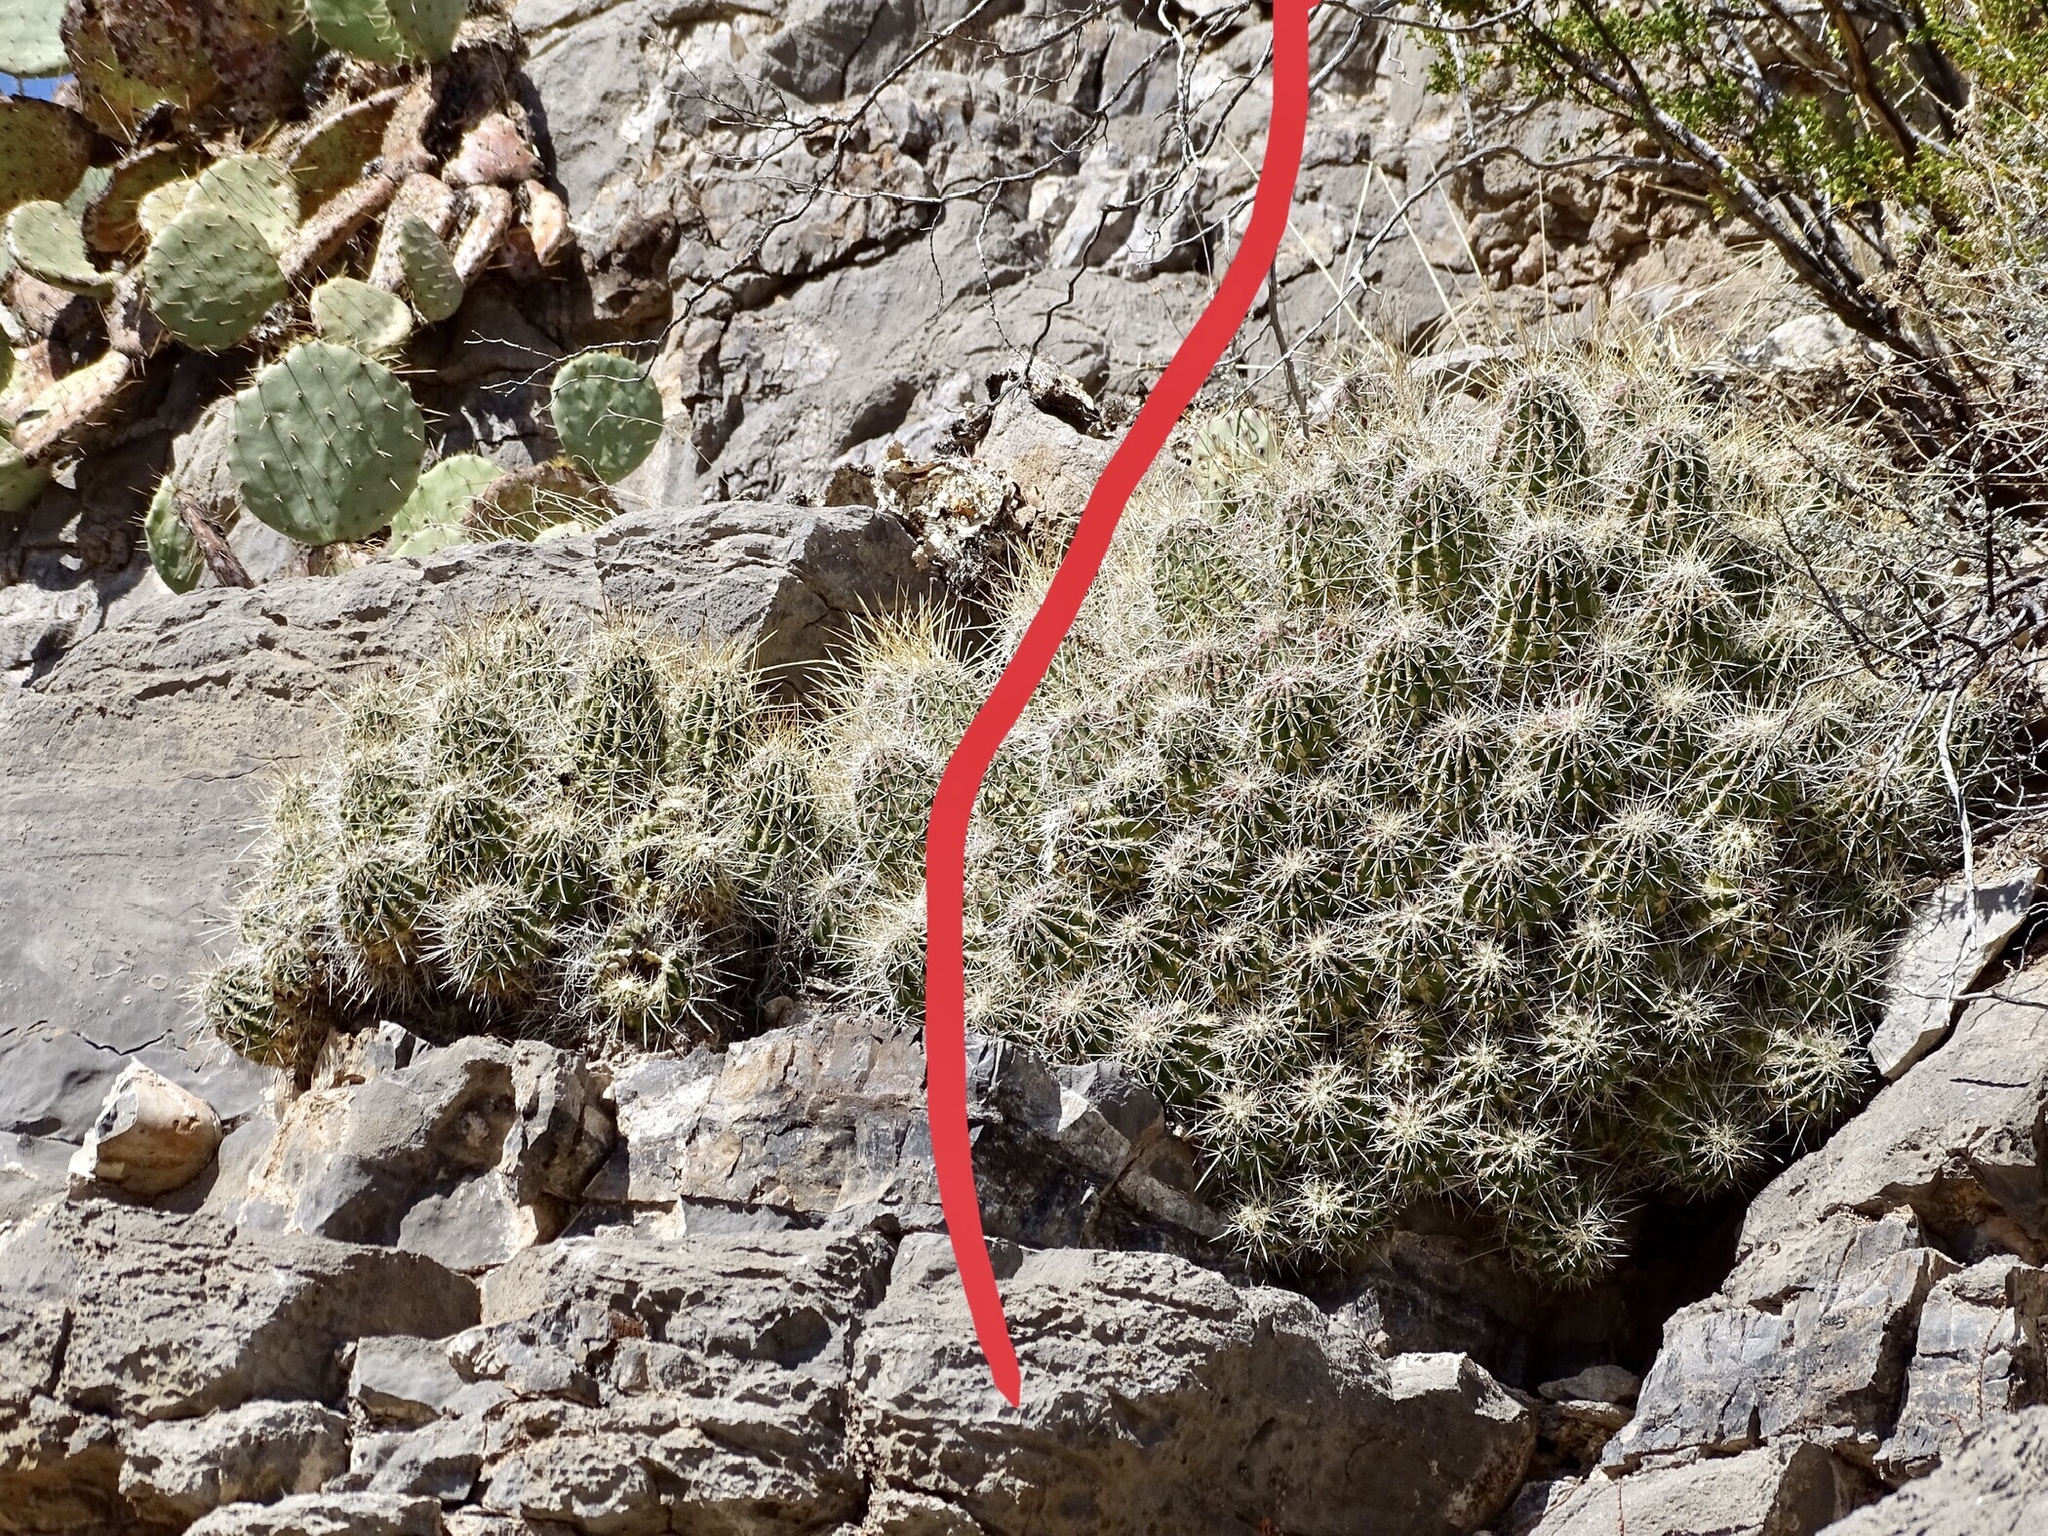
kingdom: Plantae
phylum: Tracheophyta
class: Magnoliopsida
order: Caryophyllales
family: Cactaceae
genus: Echinocereus
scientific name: Echinocereus stramineus
